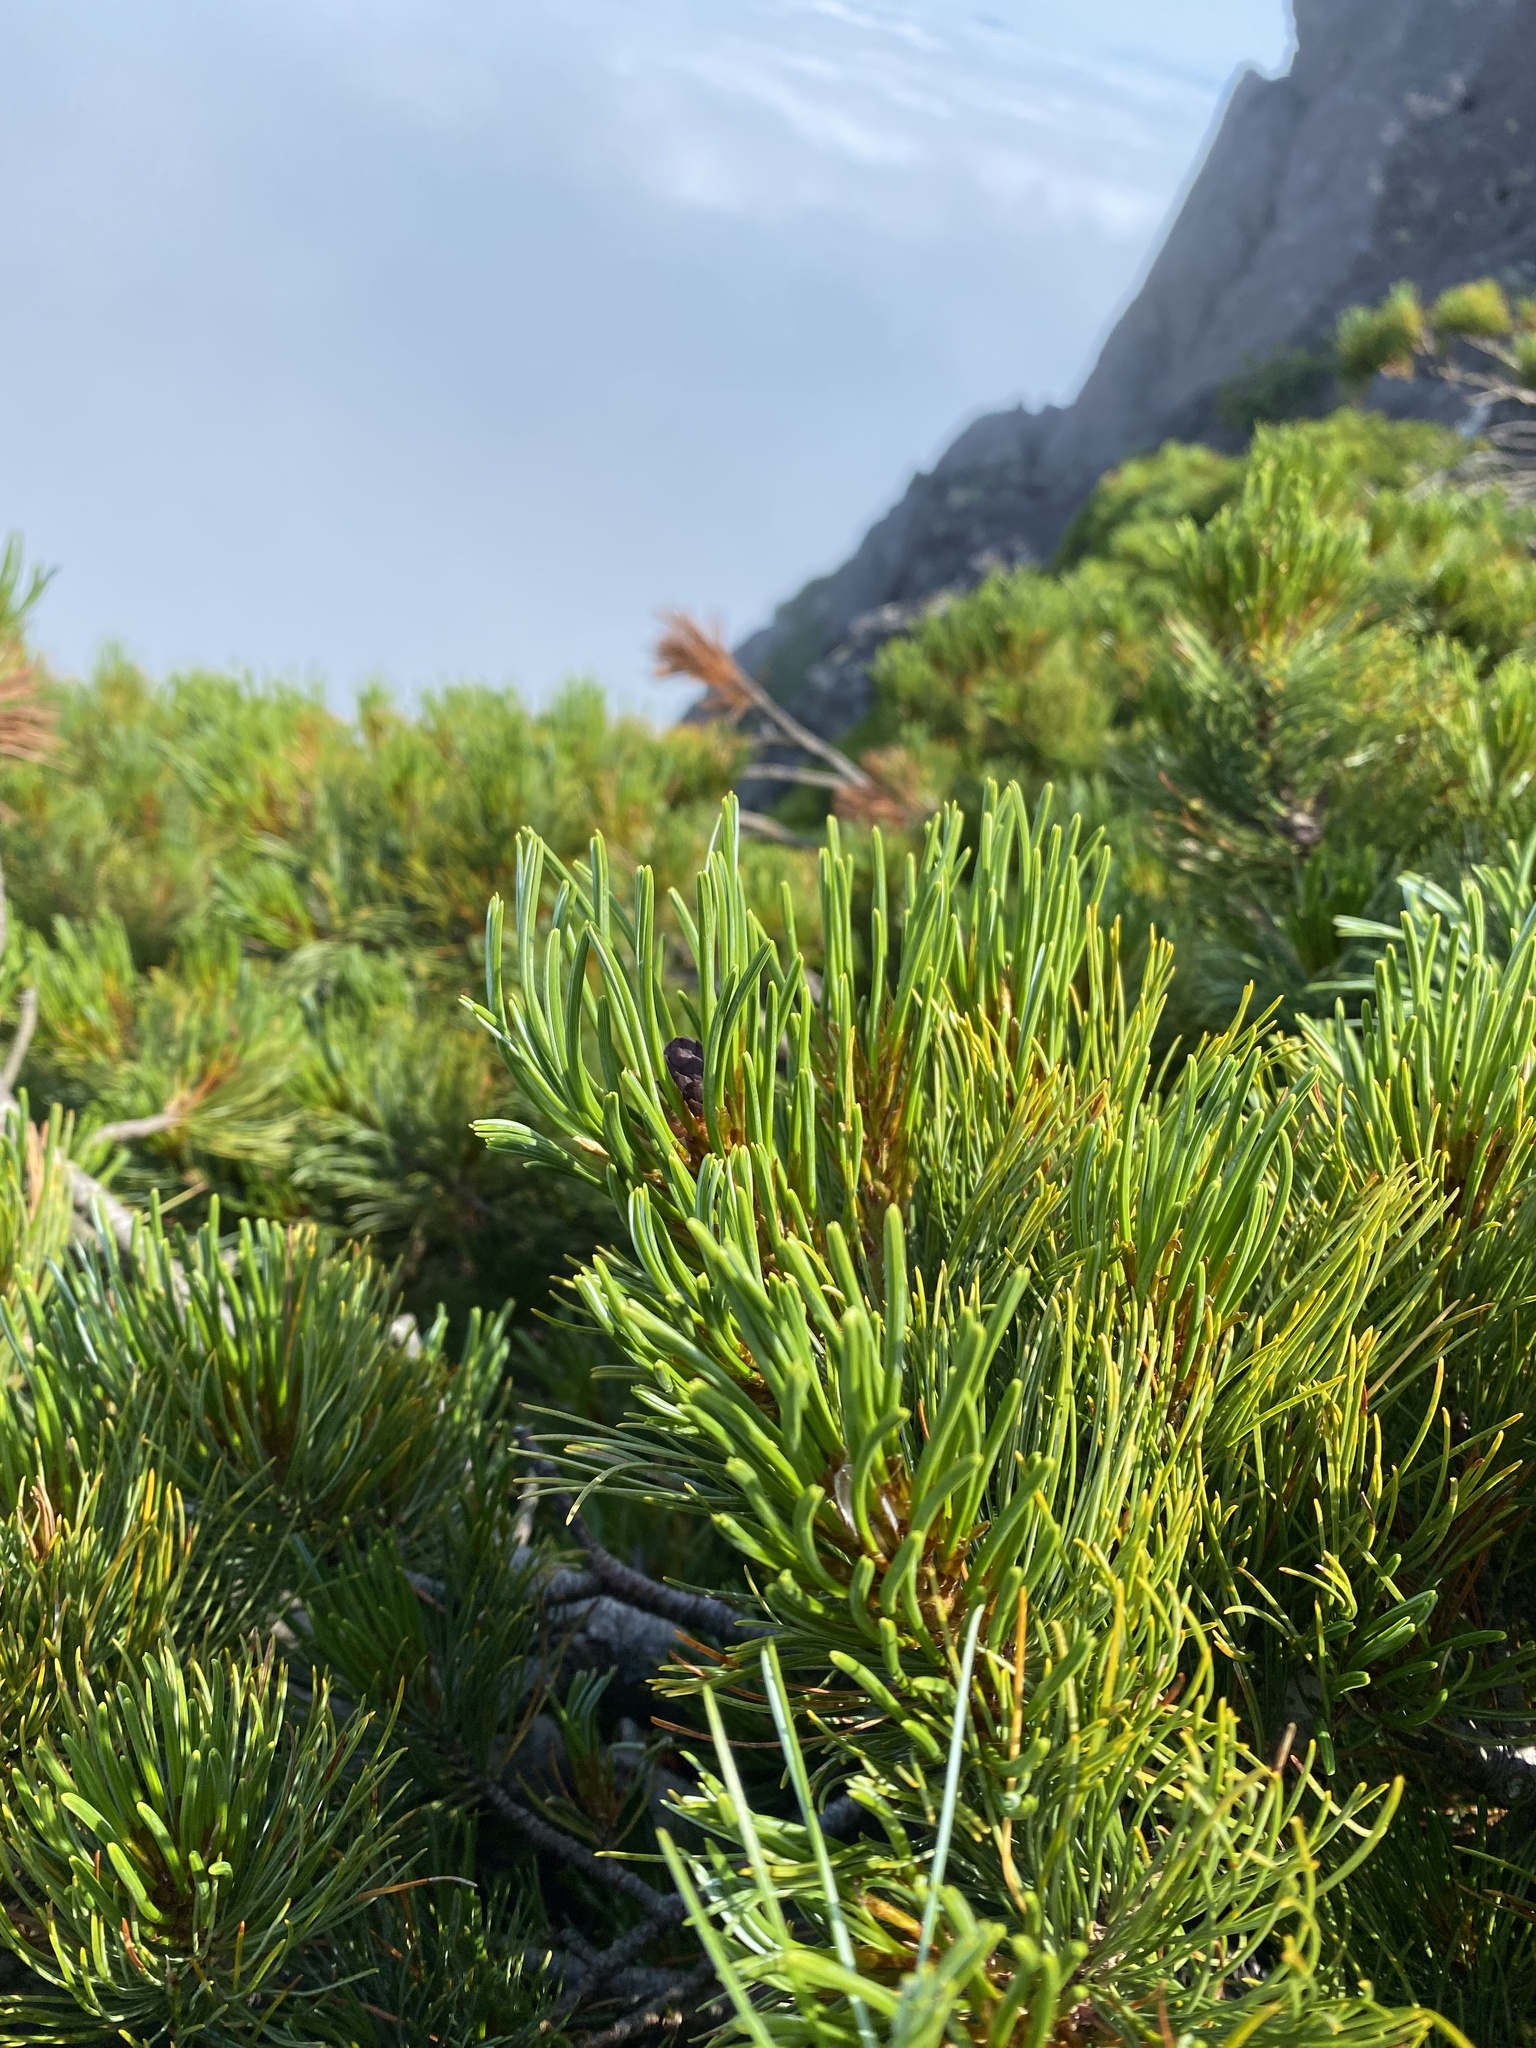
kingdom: Plantae
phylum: Tracheophyta
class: Pinopsida
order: Pinales
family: Pinaceae
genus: Pinus
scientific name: Pinus pumila
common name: Dwarf siberian pine
